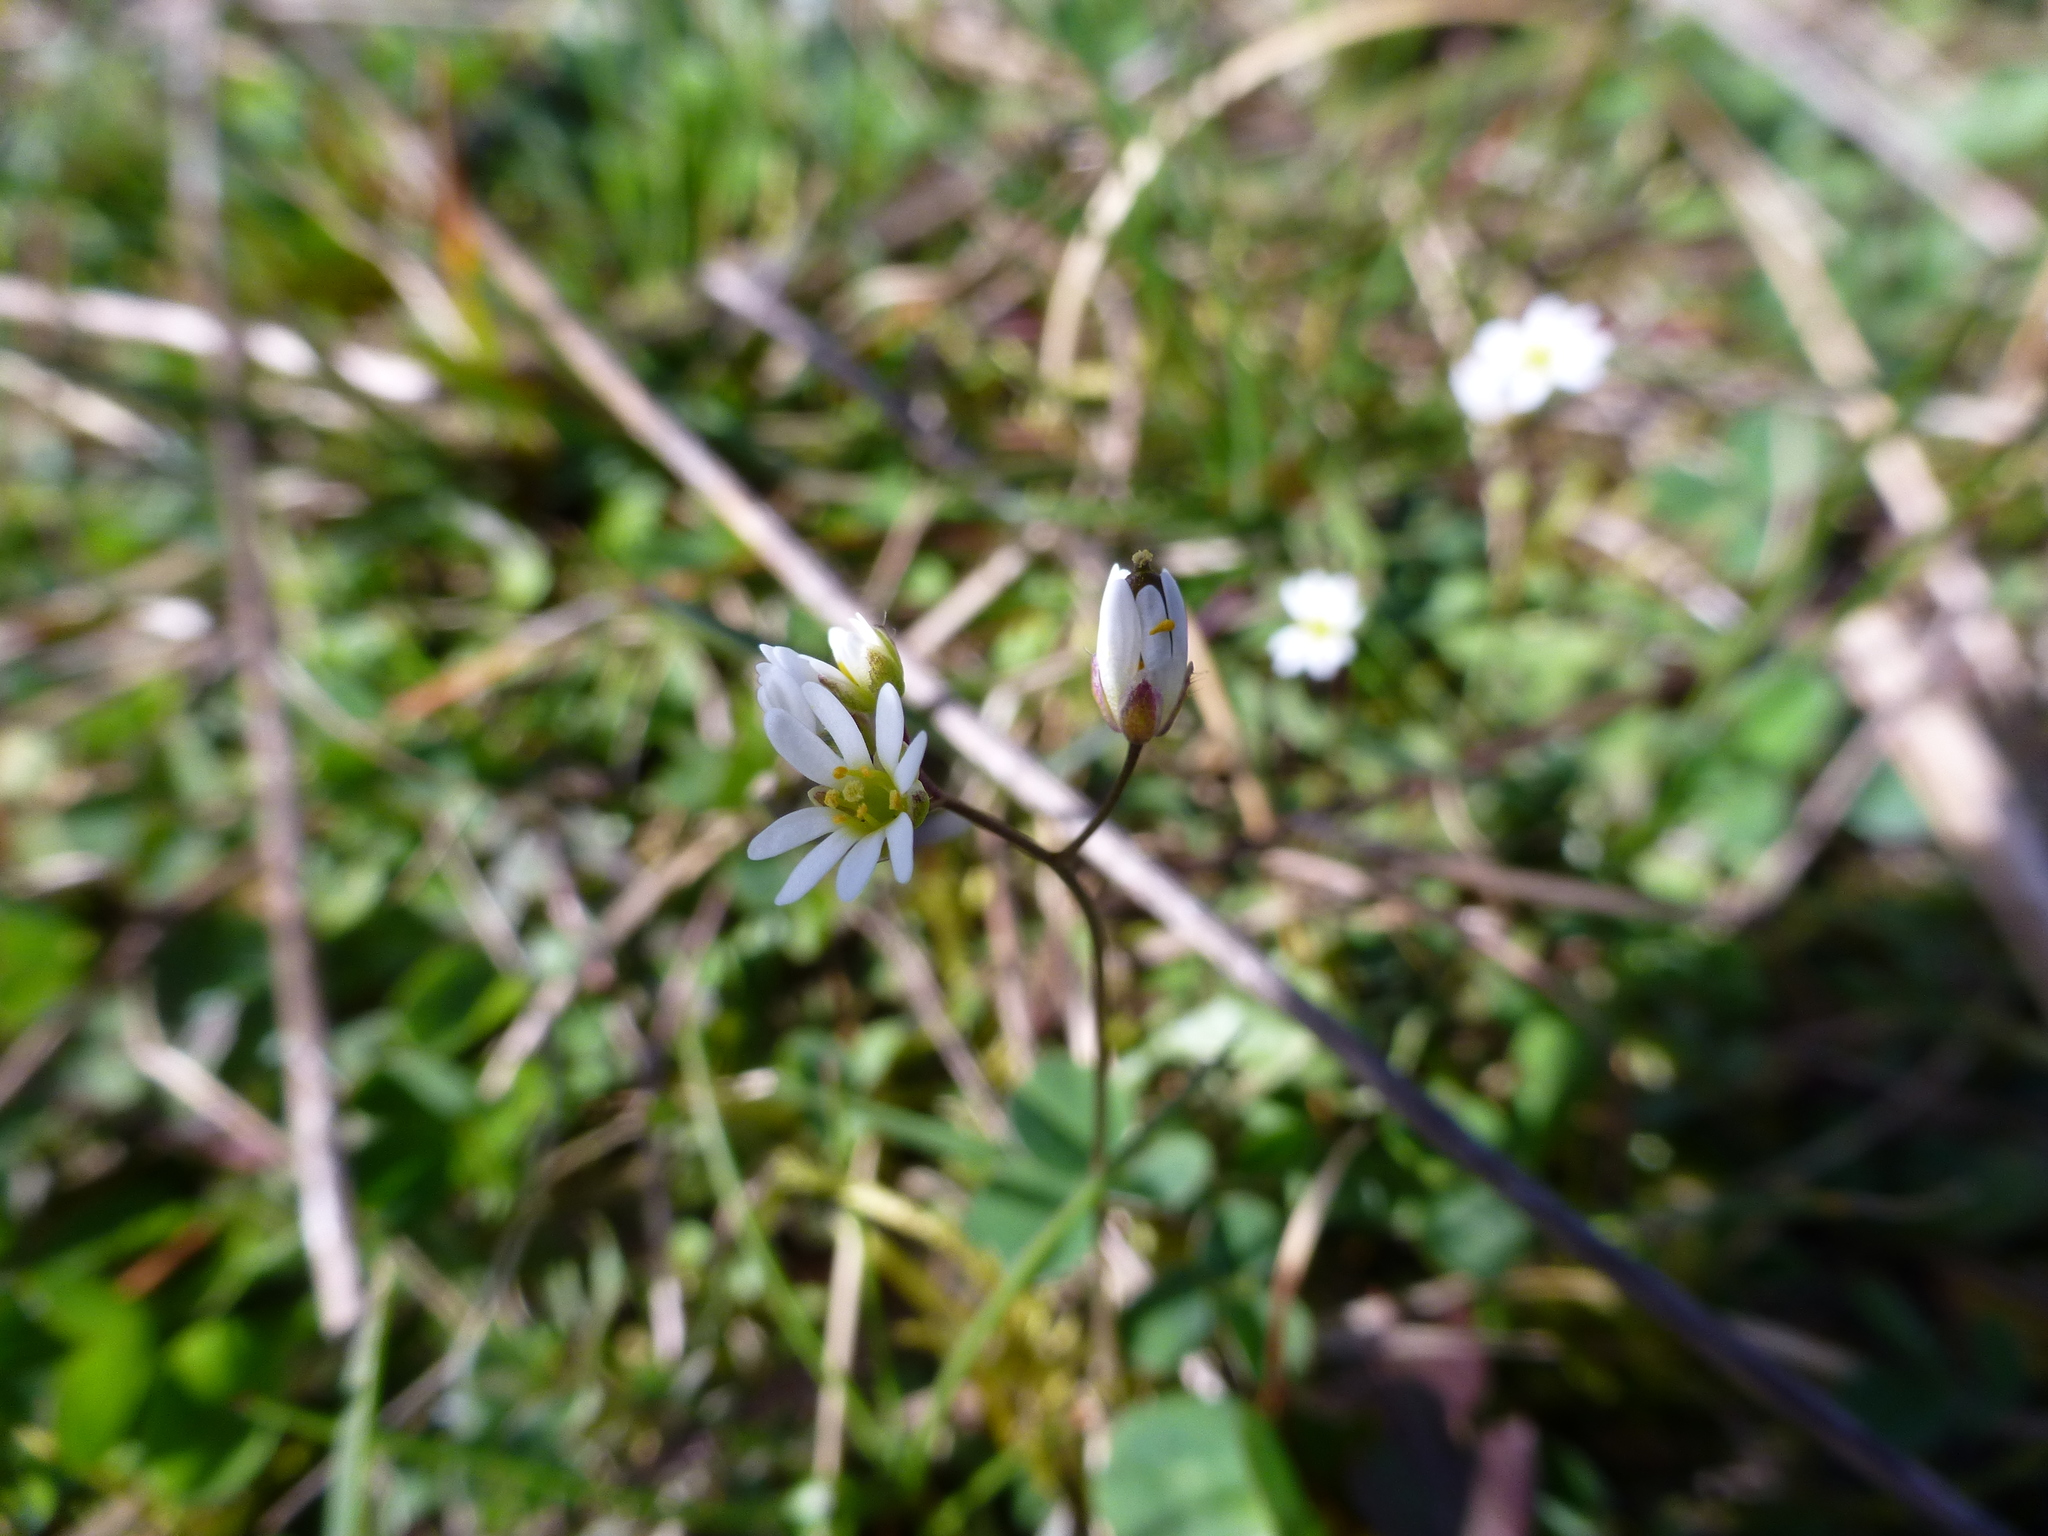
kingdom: Plantae
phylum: Tracheophyta
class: Magnoliopsida
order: Brassicales
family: Brassicaceae
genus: Draba
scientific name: Draba verna
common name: Spring draba
